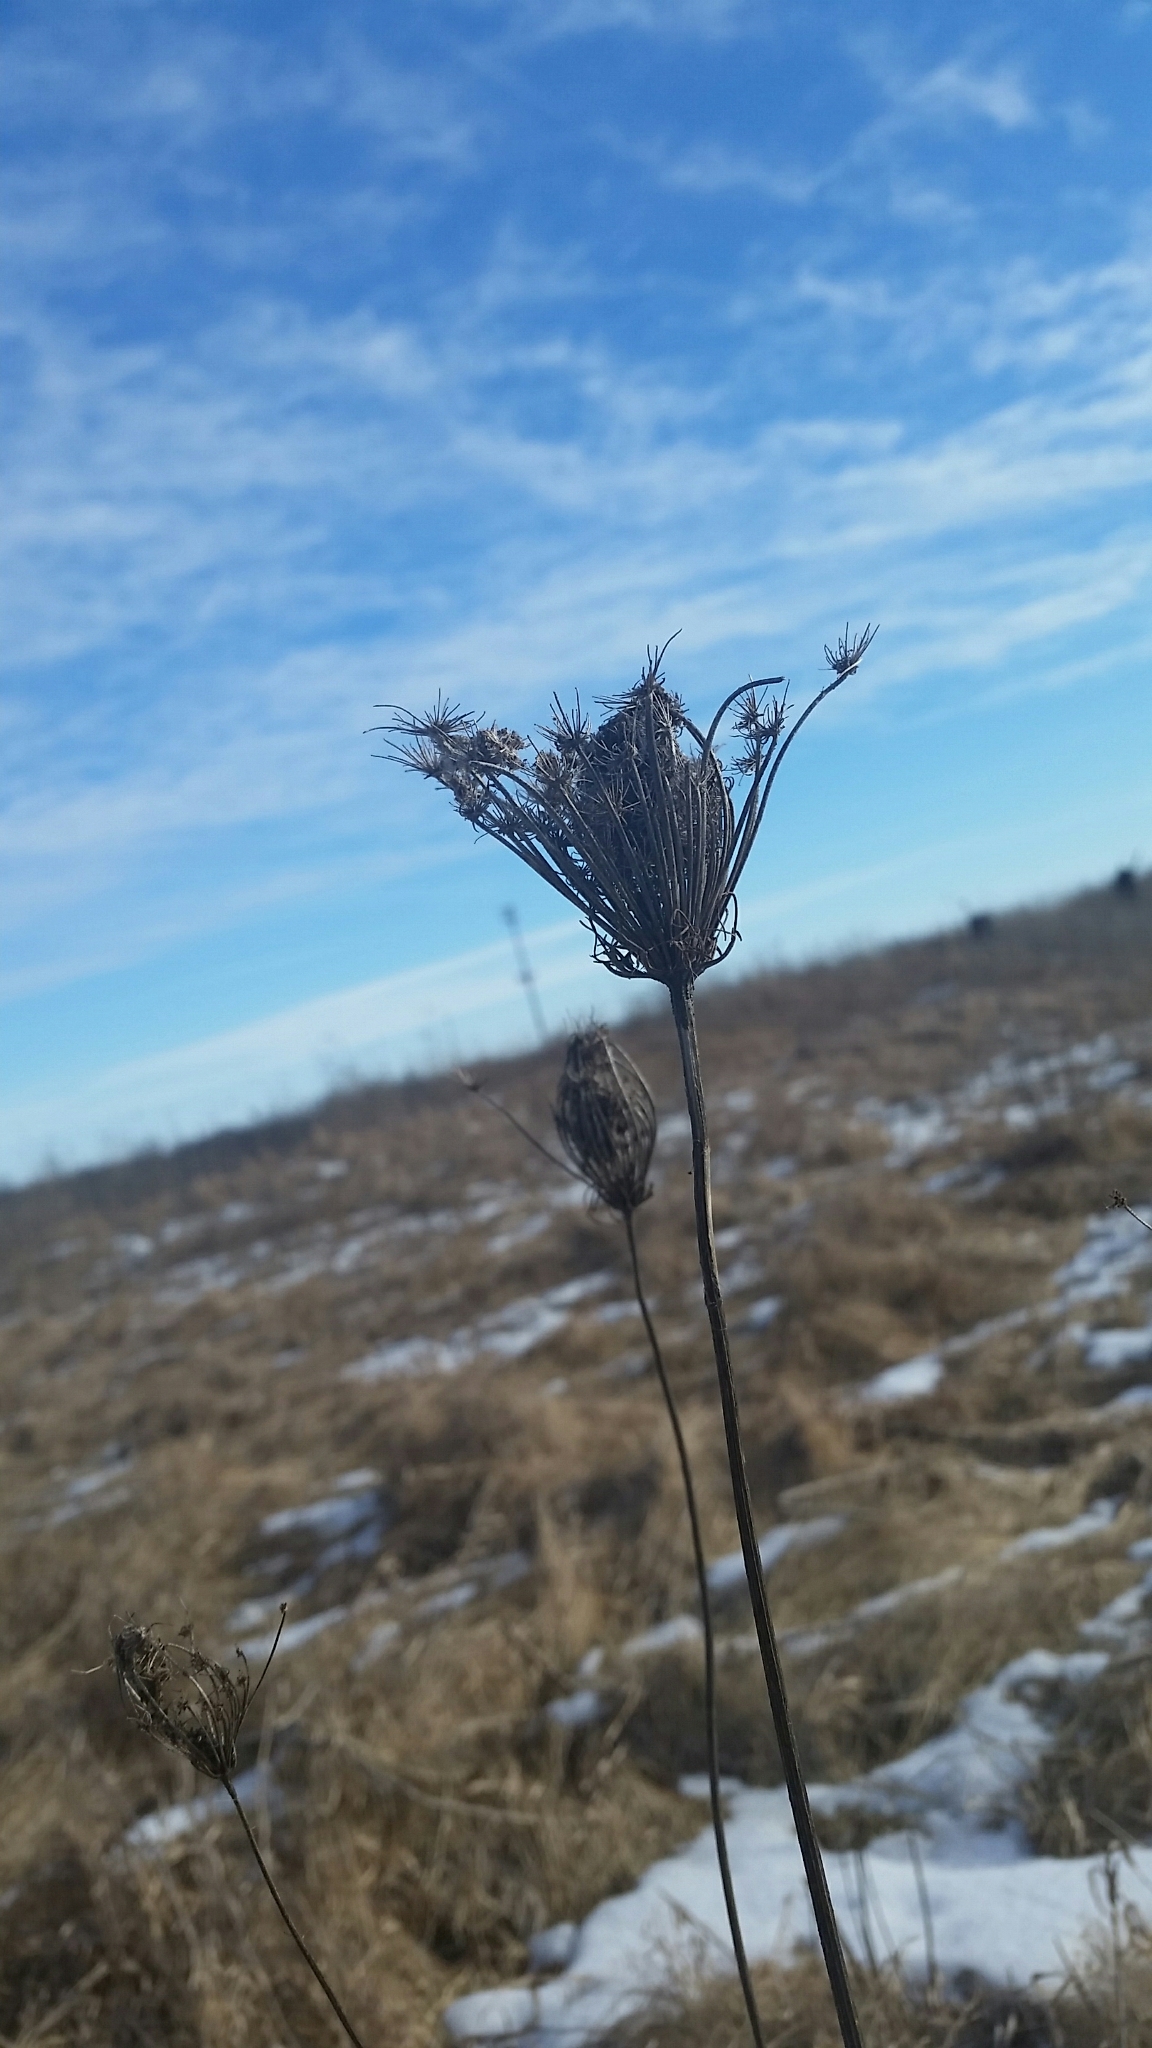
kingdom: Plantae
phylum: Tracheophyta
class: Magnoliopsida
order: Apiales
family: Apiaceae
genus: Daucus
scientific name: Daucus carota
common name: Wild carrot
